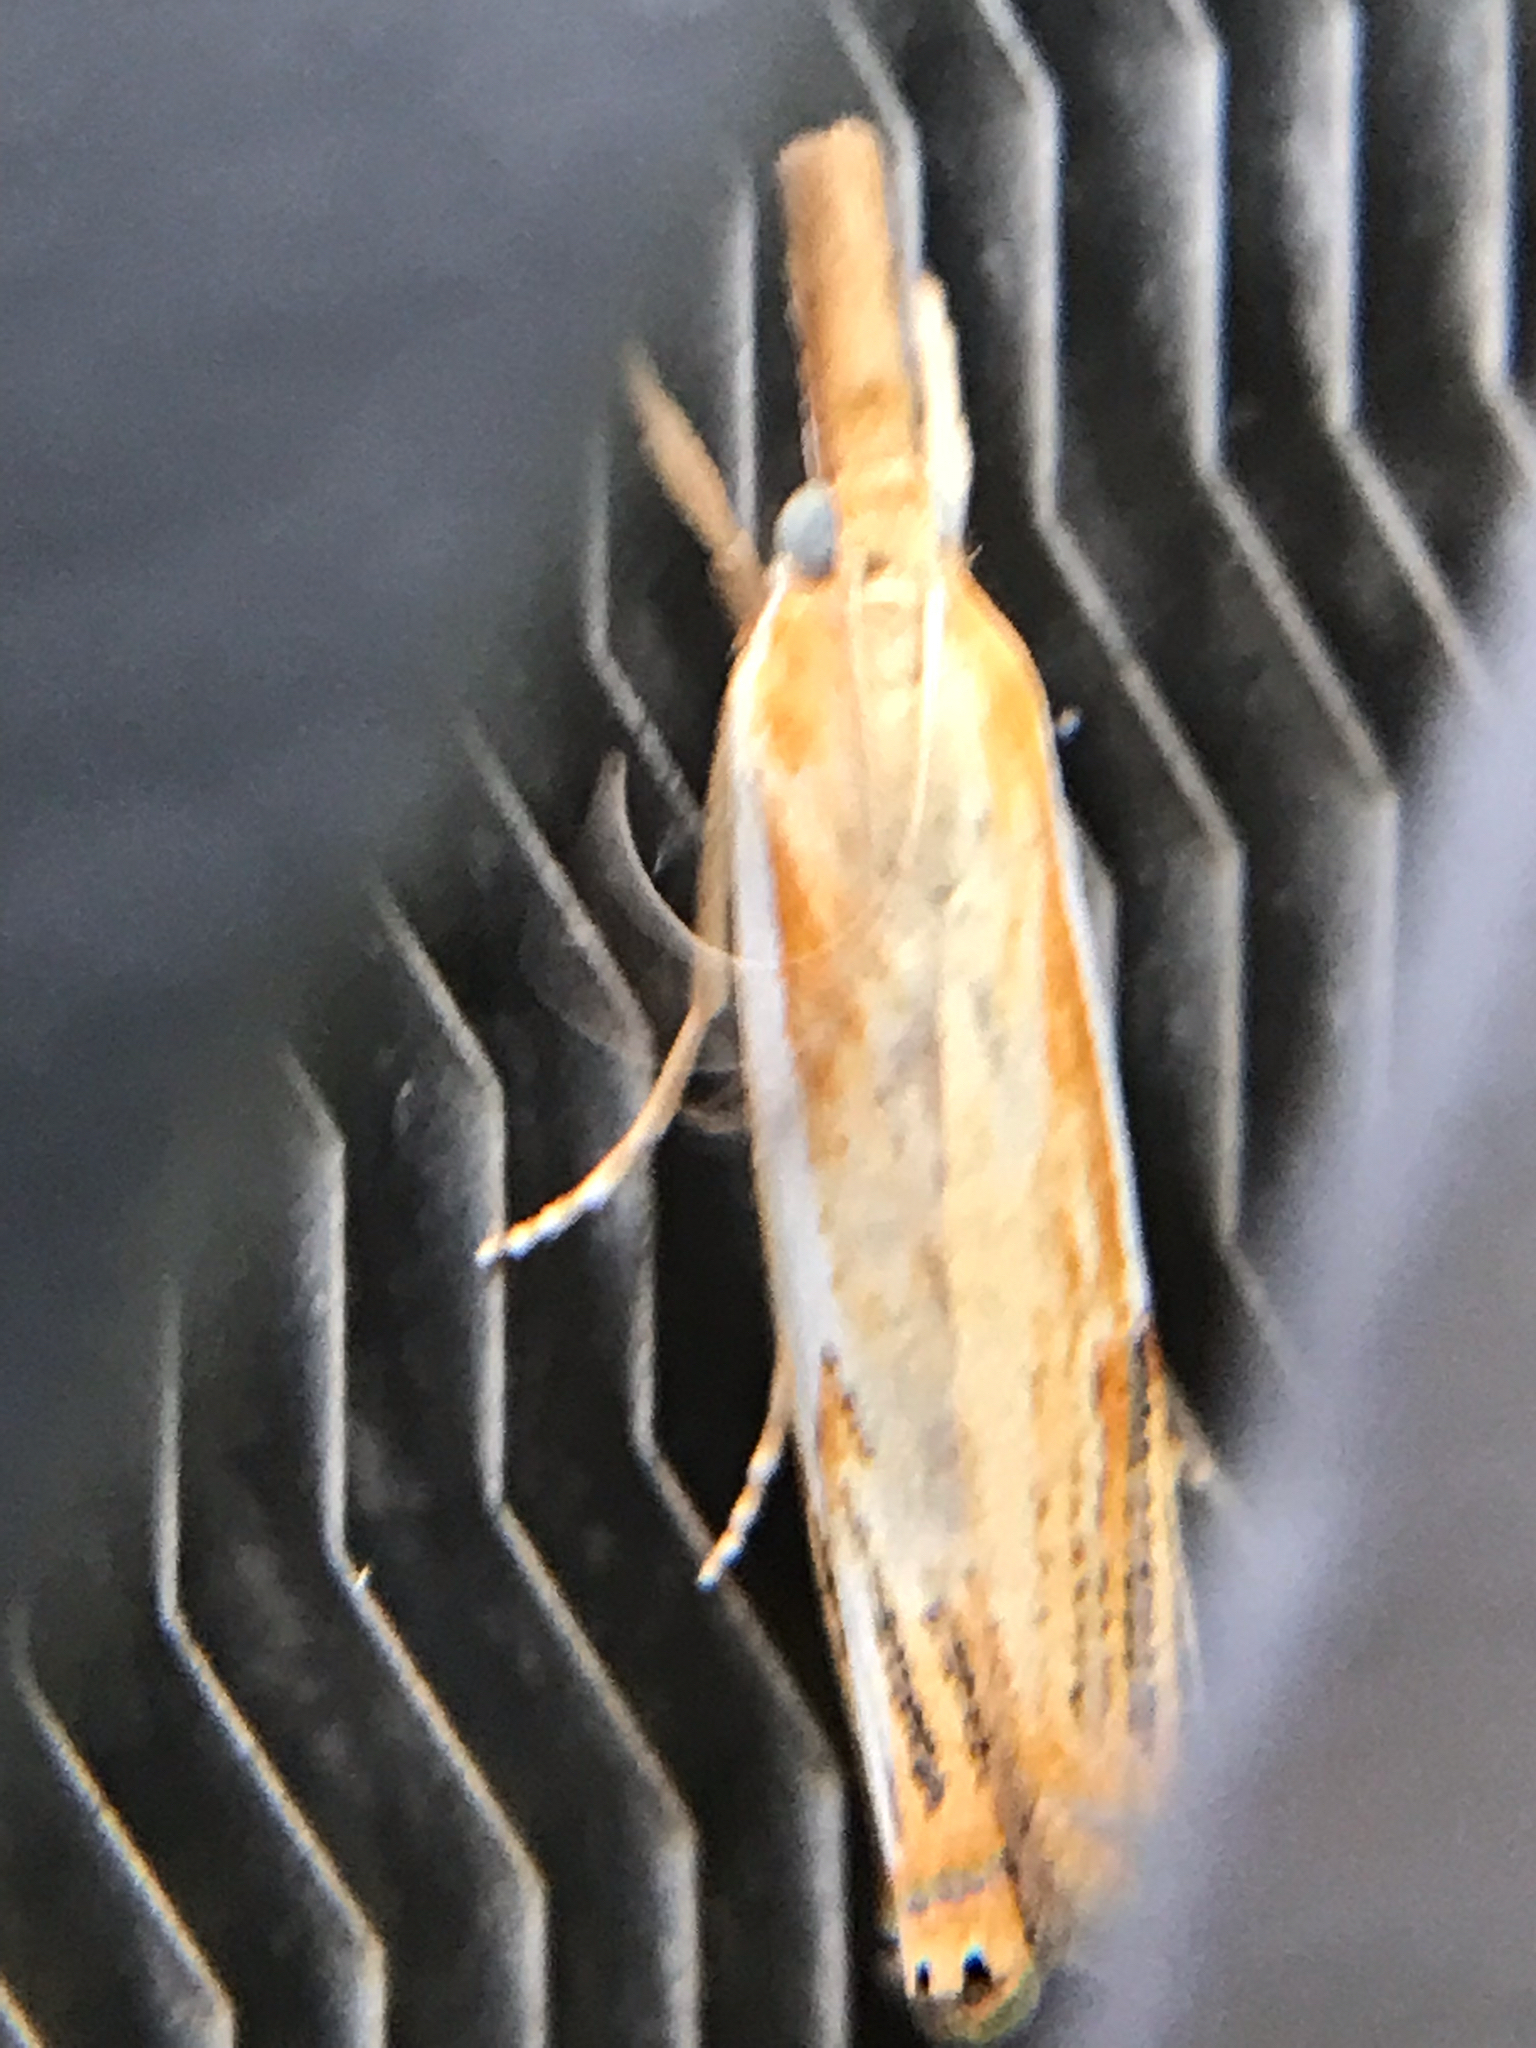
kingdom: Animalia
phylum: Arthropoda
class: Insecta
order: Lepidoptera
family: Crambidae
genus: Crambus
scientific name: Crambus agitatellus
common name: Double-banded grass-veneer
